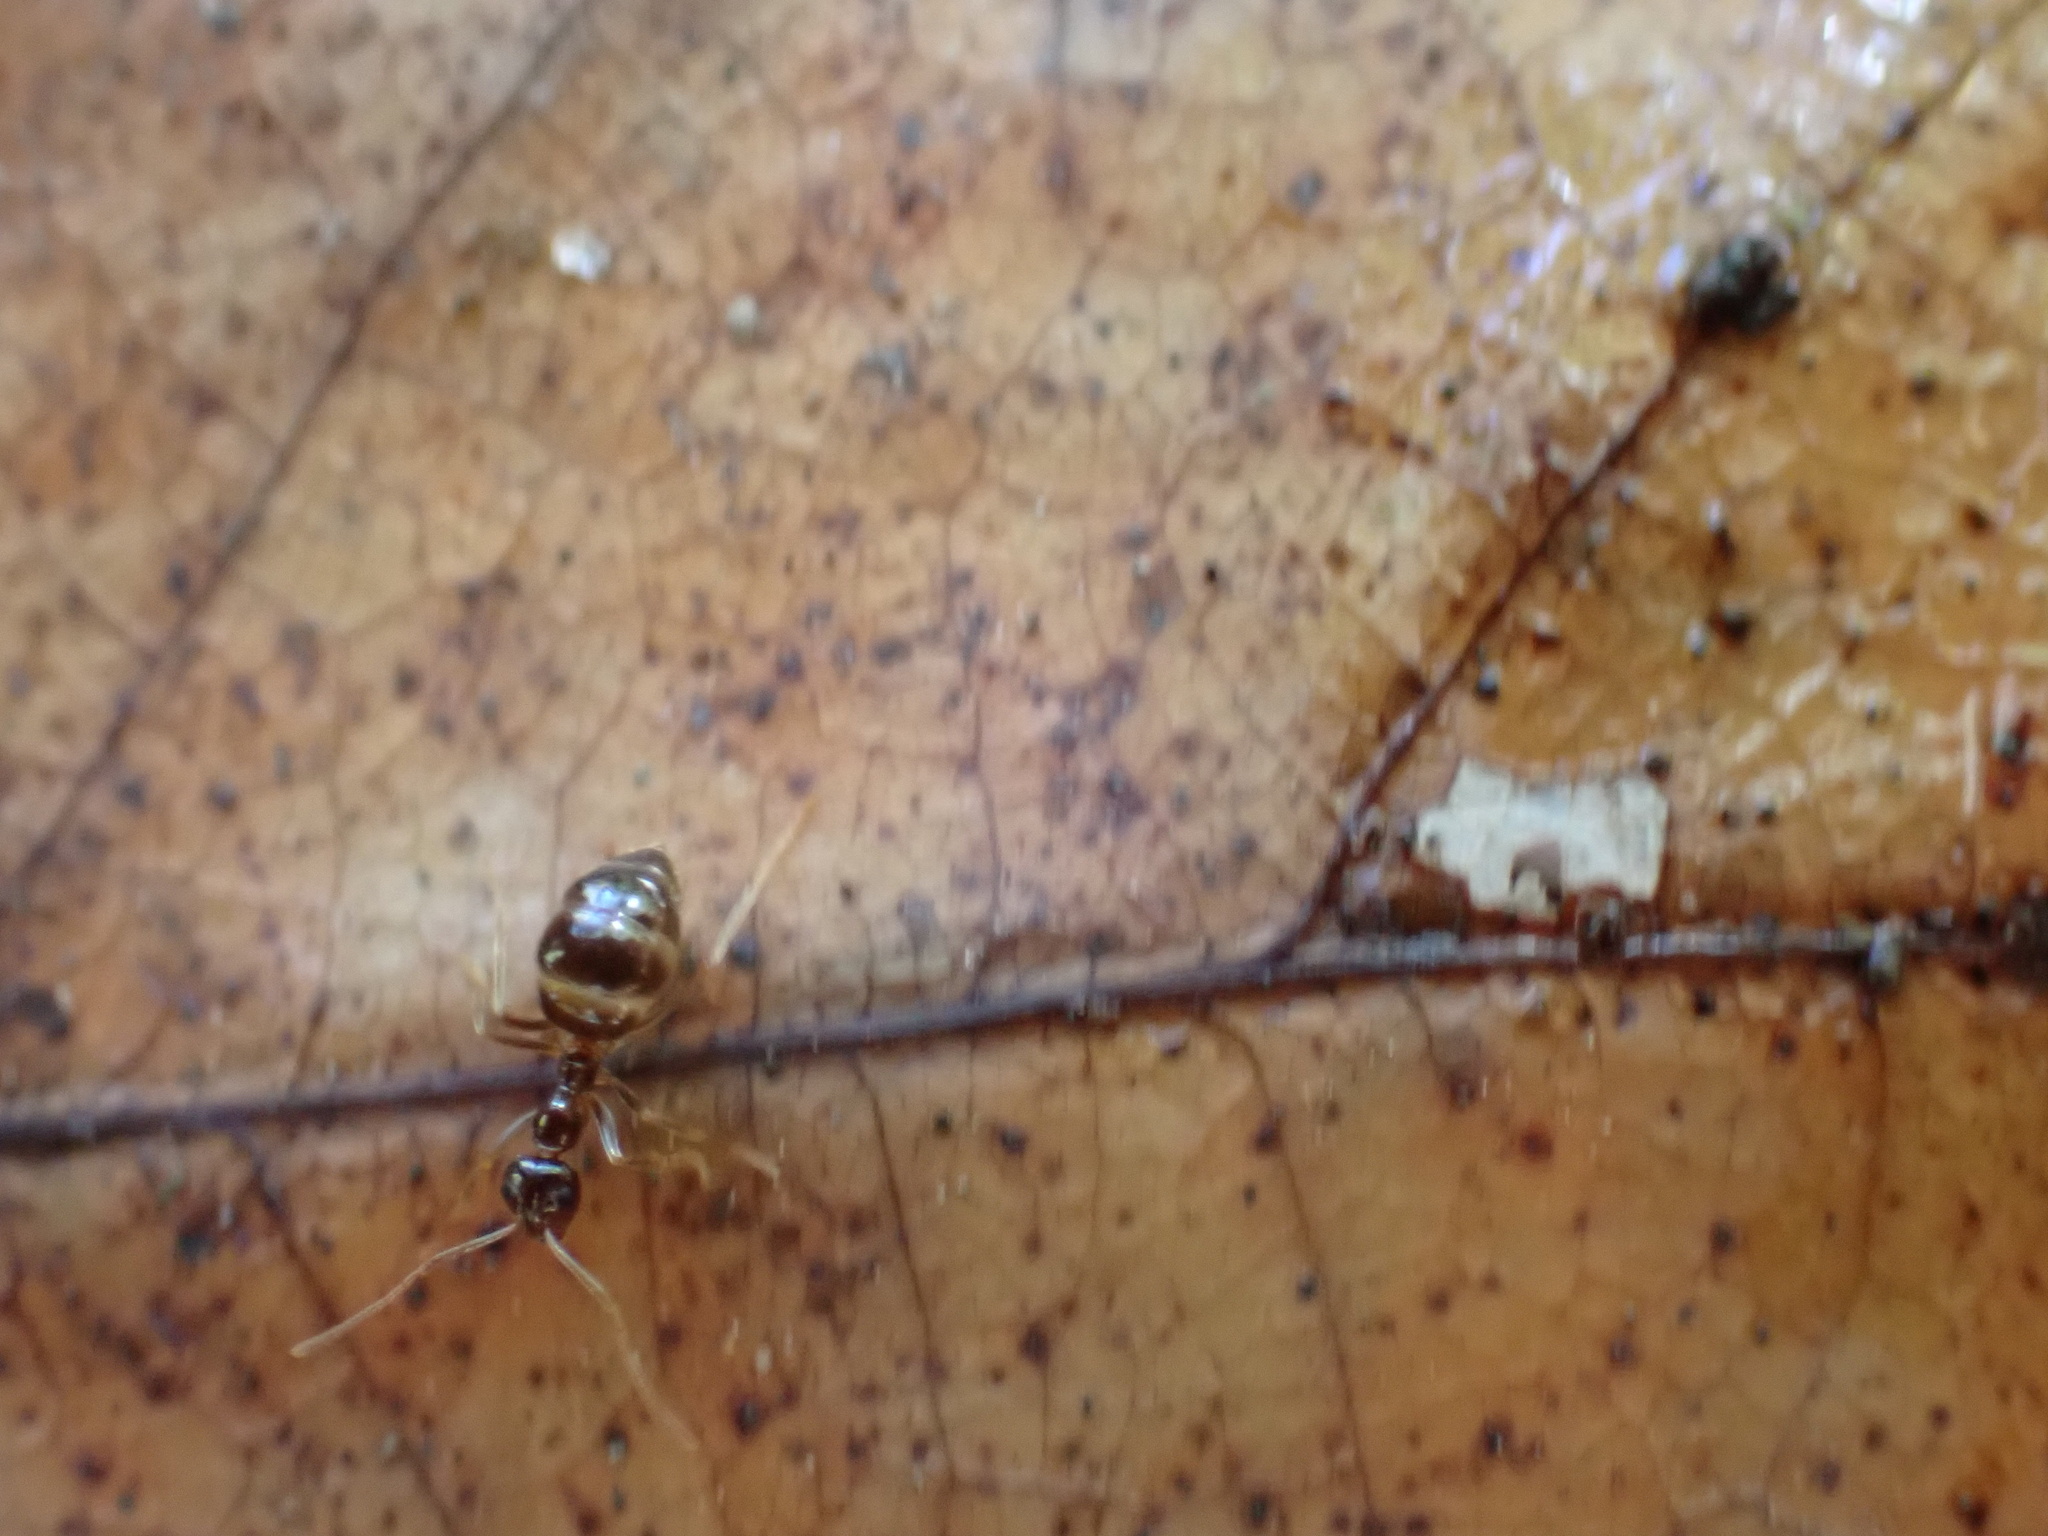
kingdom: Animalia
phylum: Arthropoda
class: Insecta
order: Hymenoptera
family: Formicidae
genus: Prenolepis
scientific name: Prenolepis imparis
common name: Small honey ant
